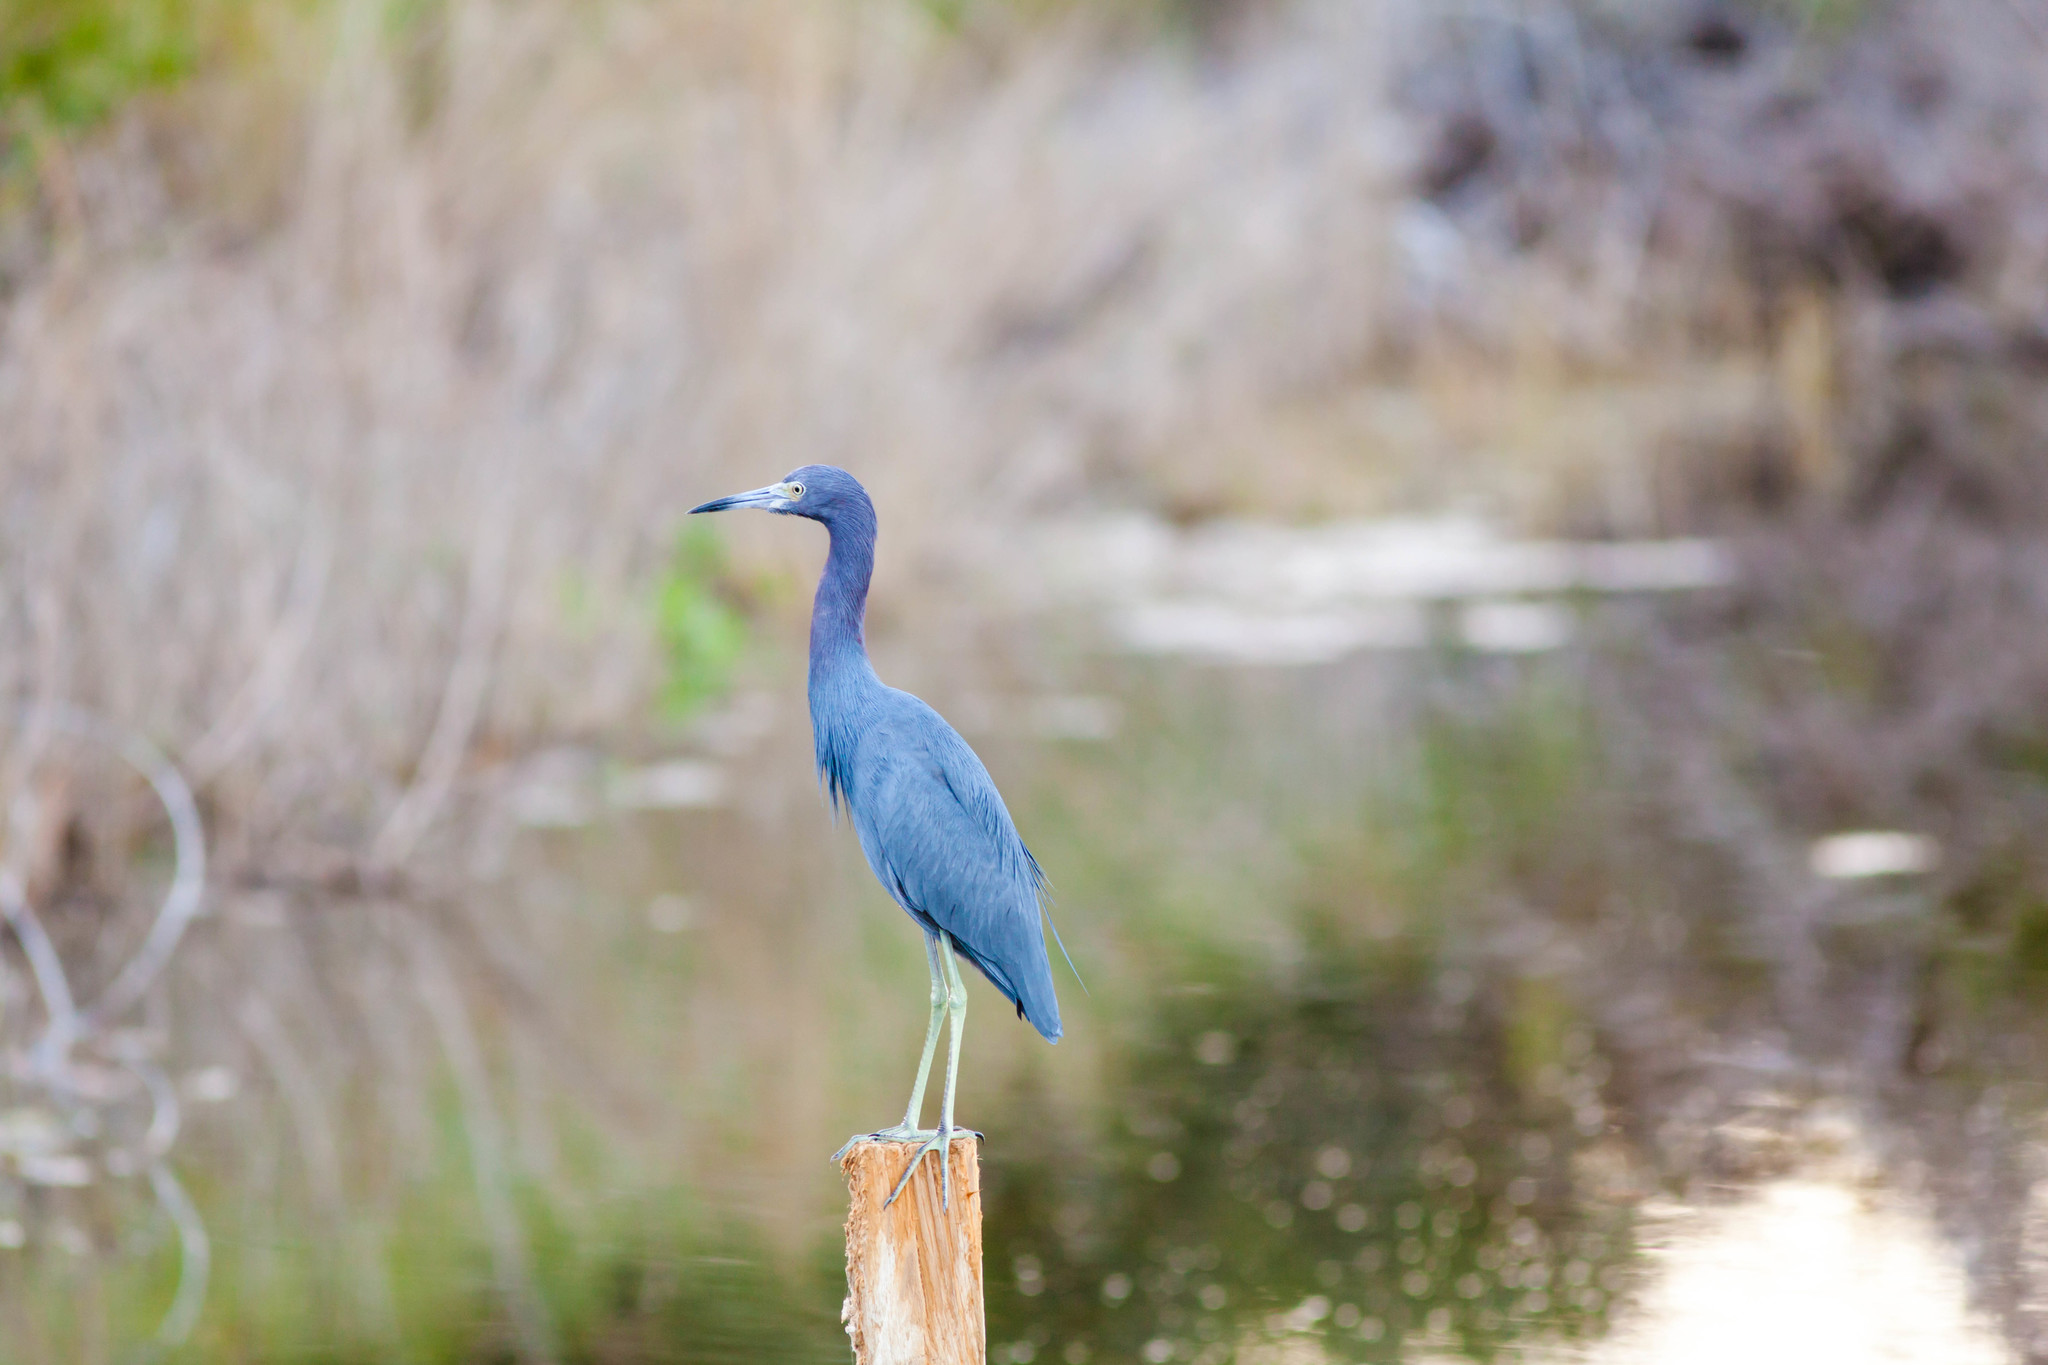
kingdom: Animalia
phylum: Chordata
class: Aves
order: Pelecaniformes
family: Ardeidae
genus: Egretta
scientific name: Egretta caerulea
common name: Little blue heron
